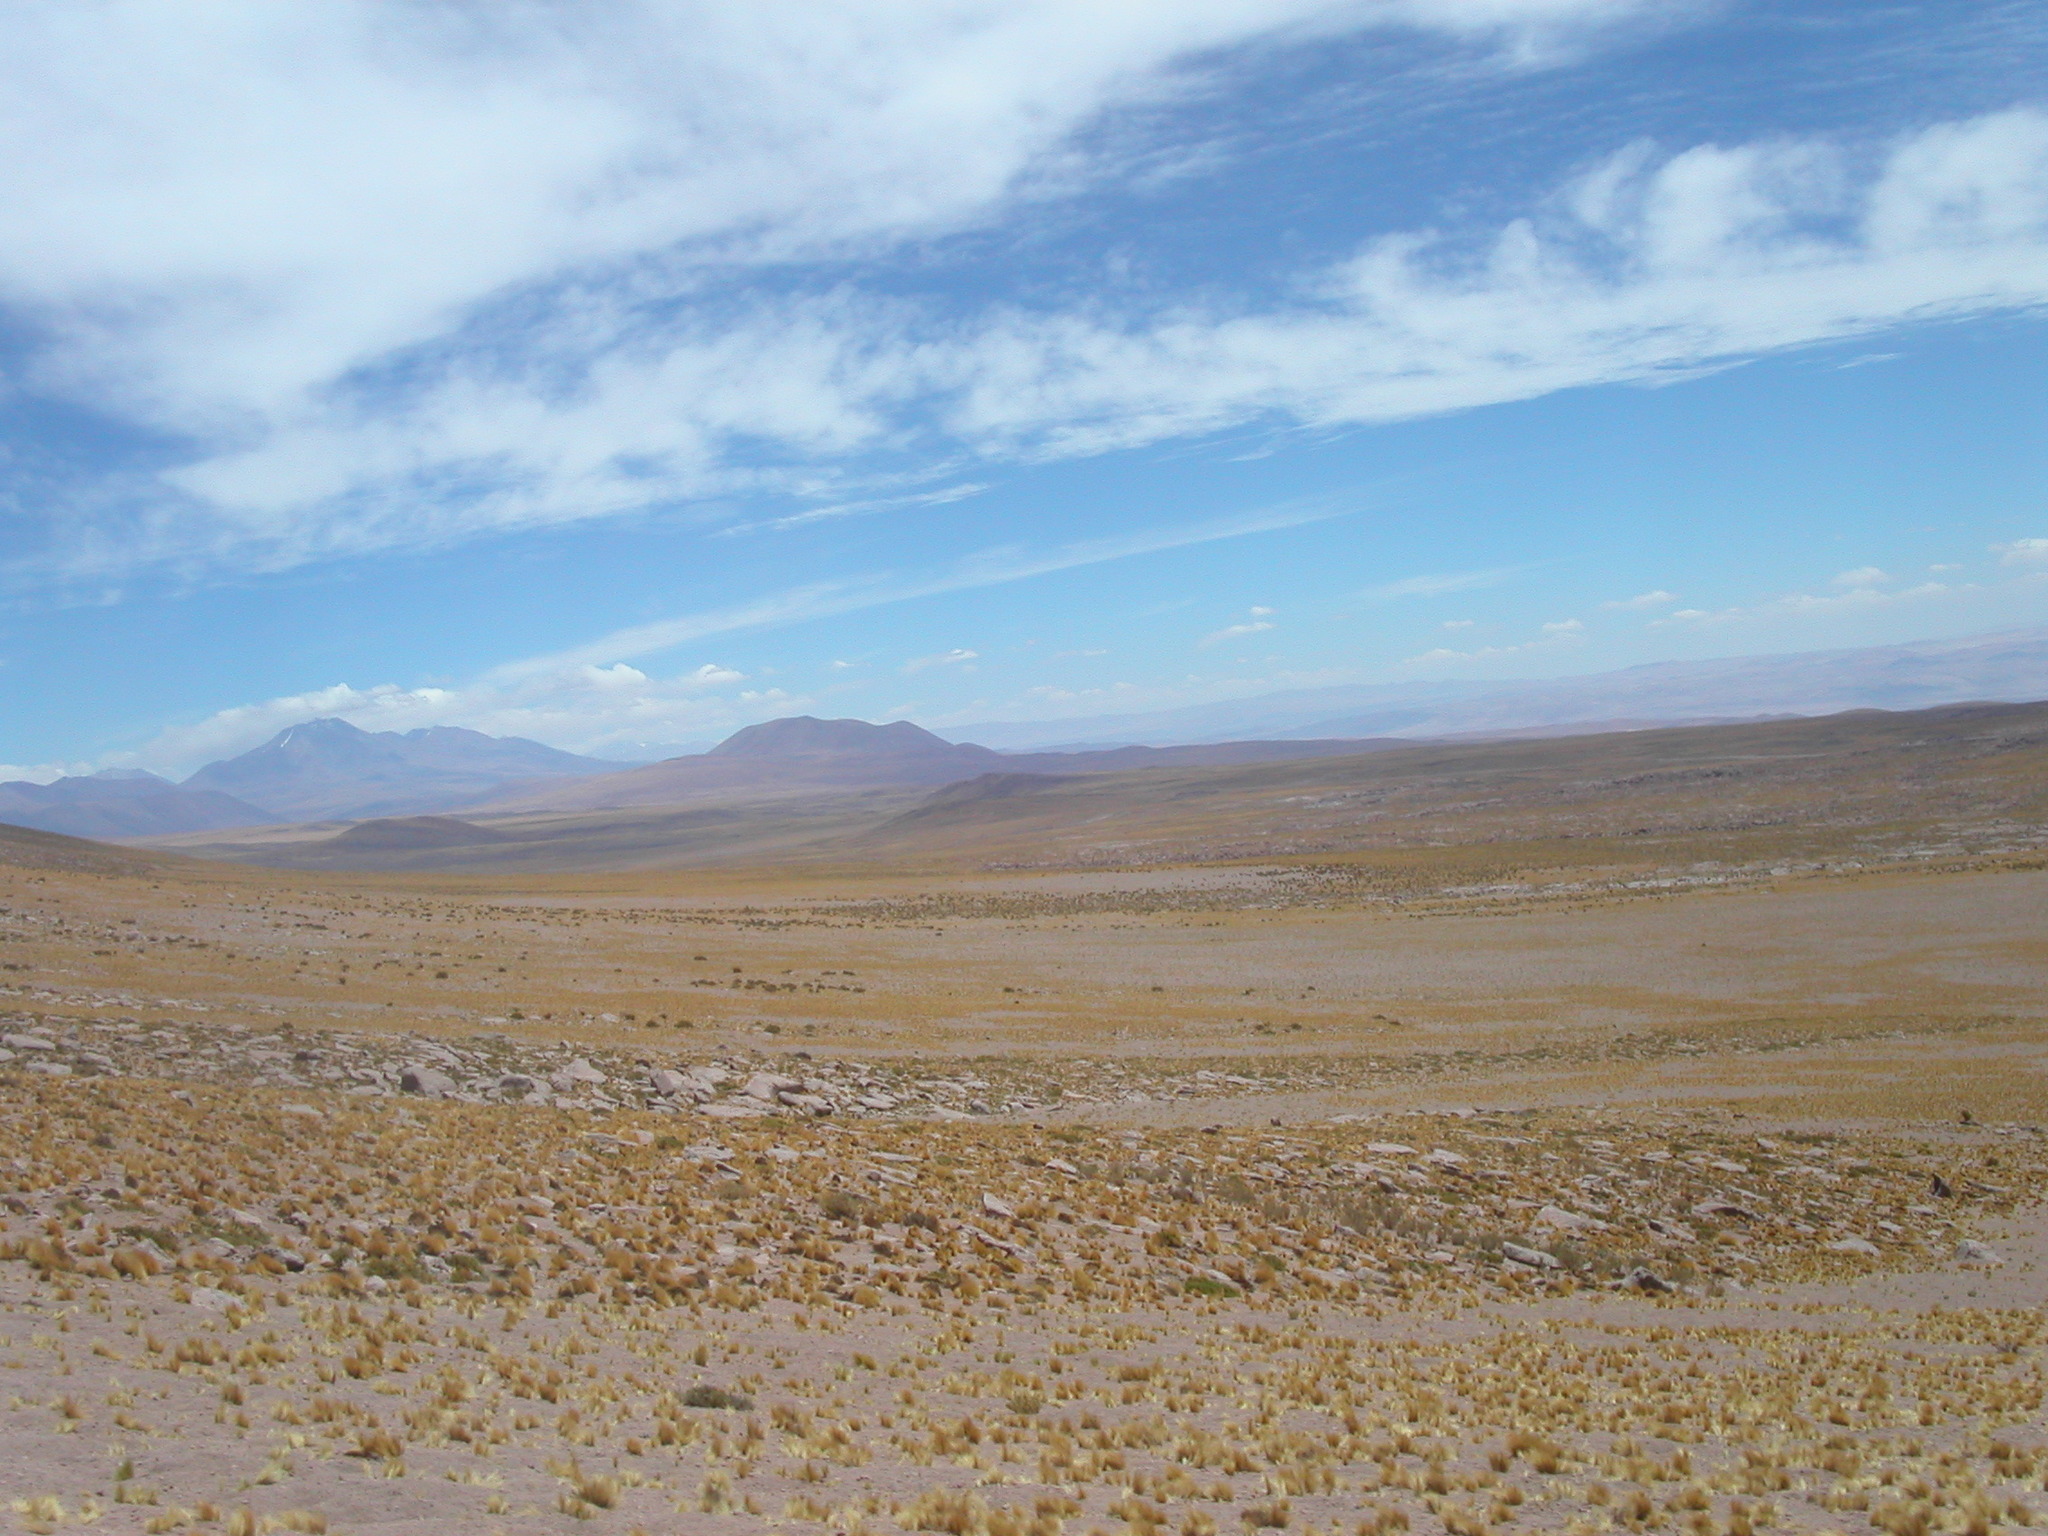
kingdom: Plantae
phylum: Tracheophyta
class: Liliopsida
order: Poales
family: Poaceae
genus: Festuca
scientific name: Festuca chrysophylla
